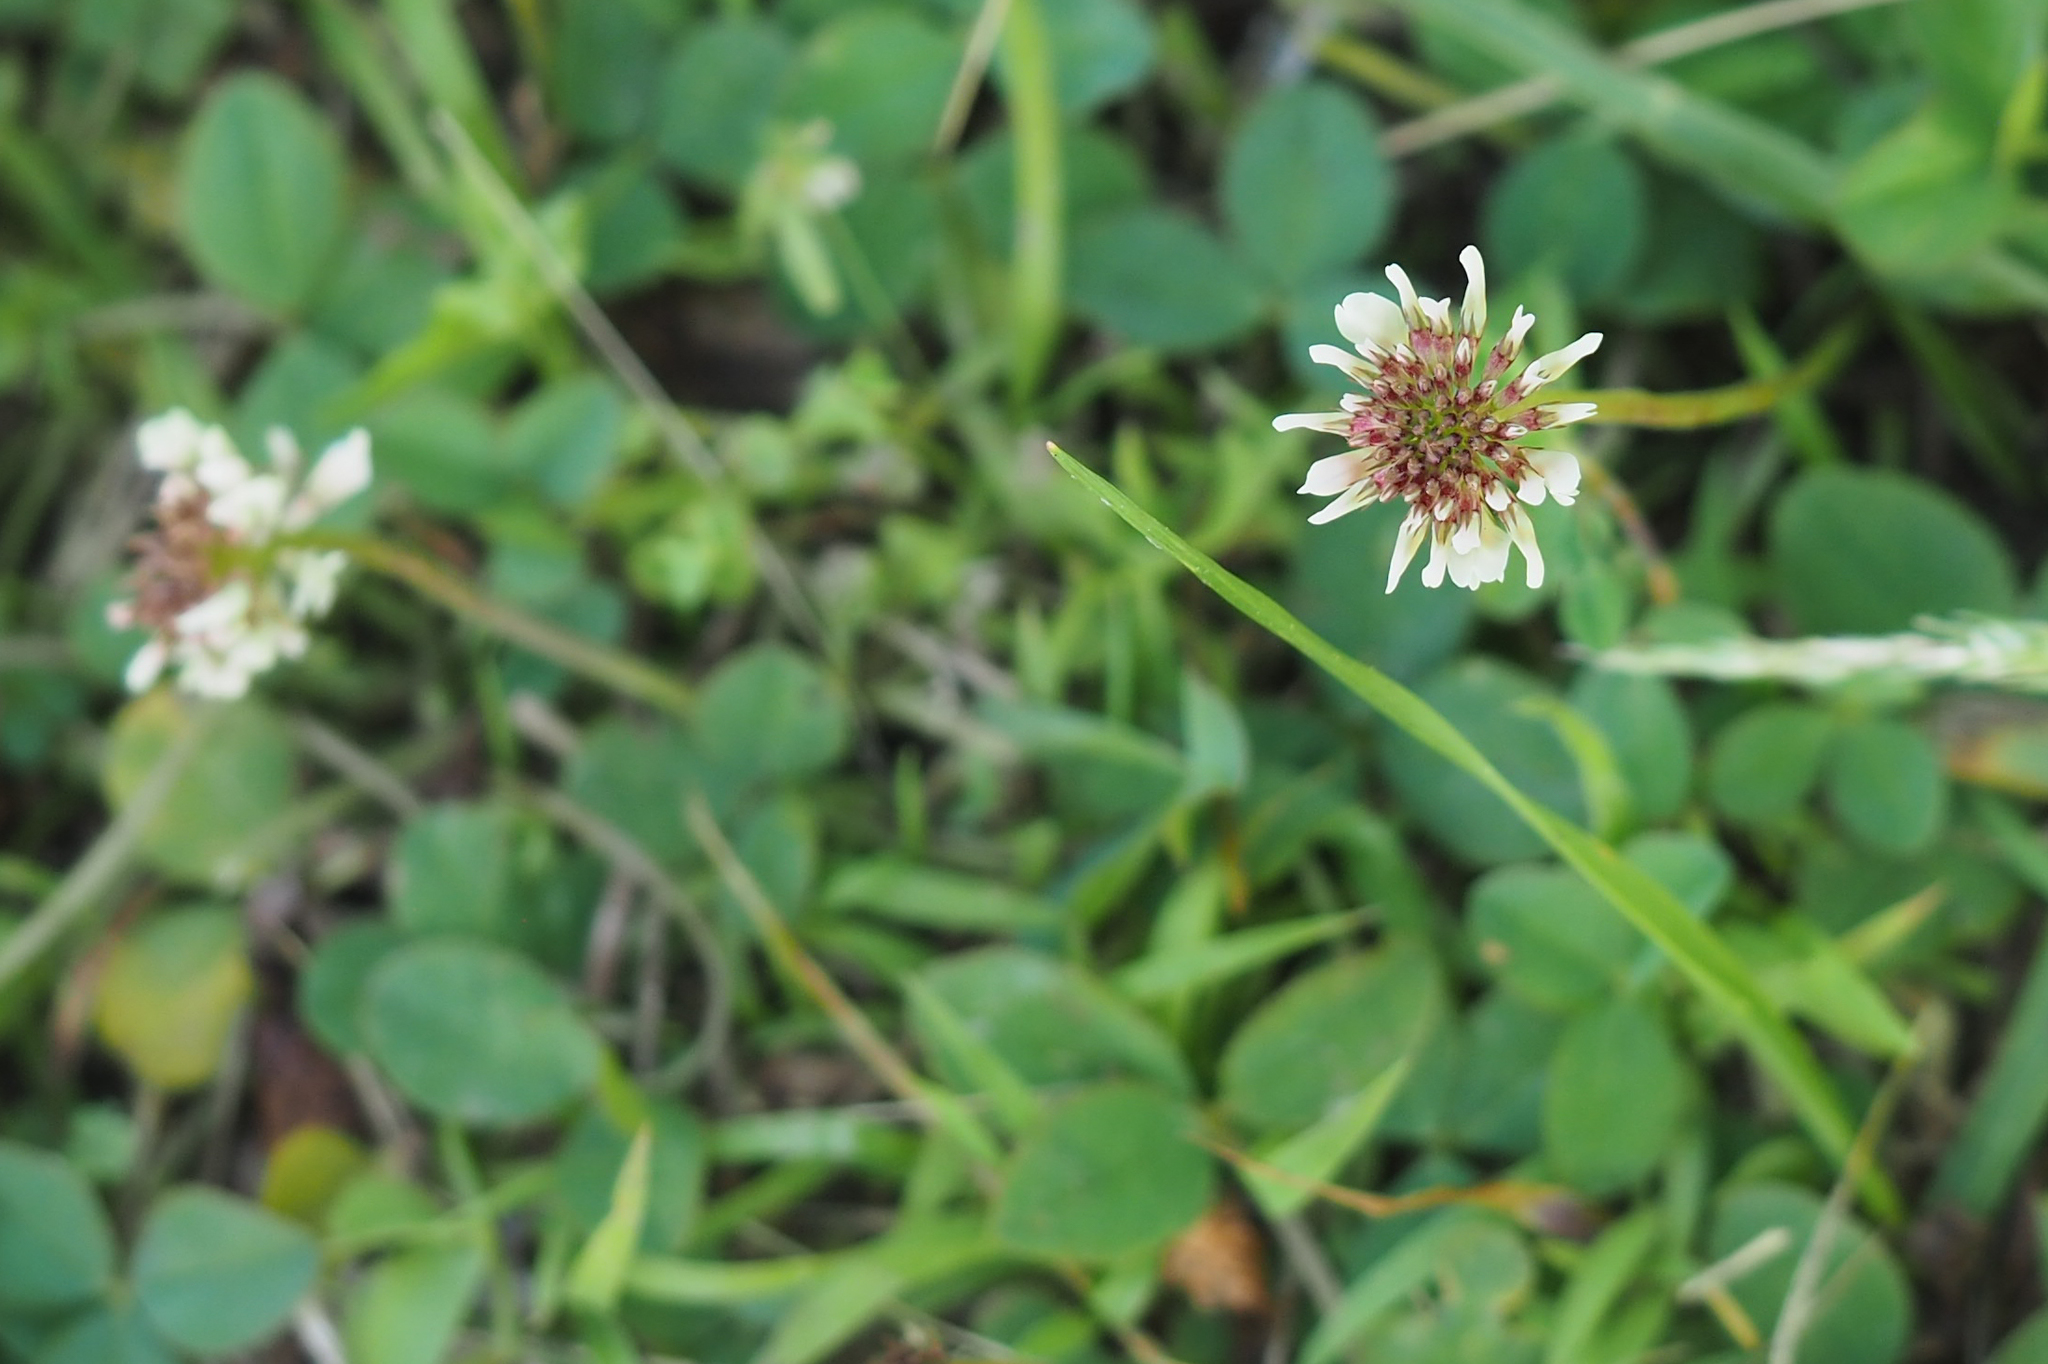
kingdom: Plantae
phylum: Tracheophyta
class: Magnoliopsida
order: Fabales
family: Fabaceae
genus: Trifolium
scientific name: Trifolium repens
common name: White clover
